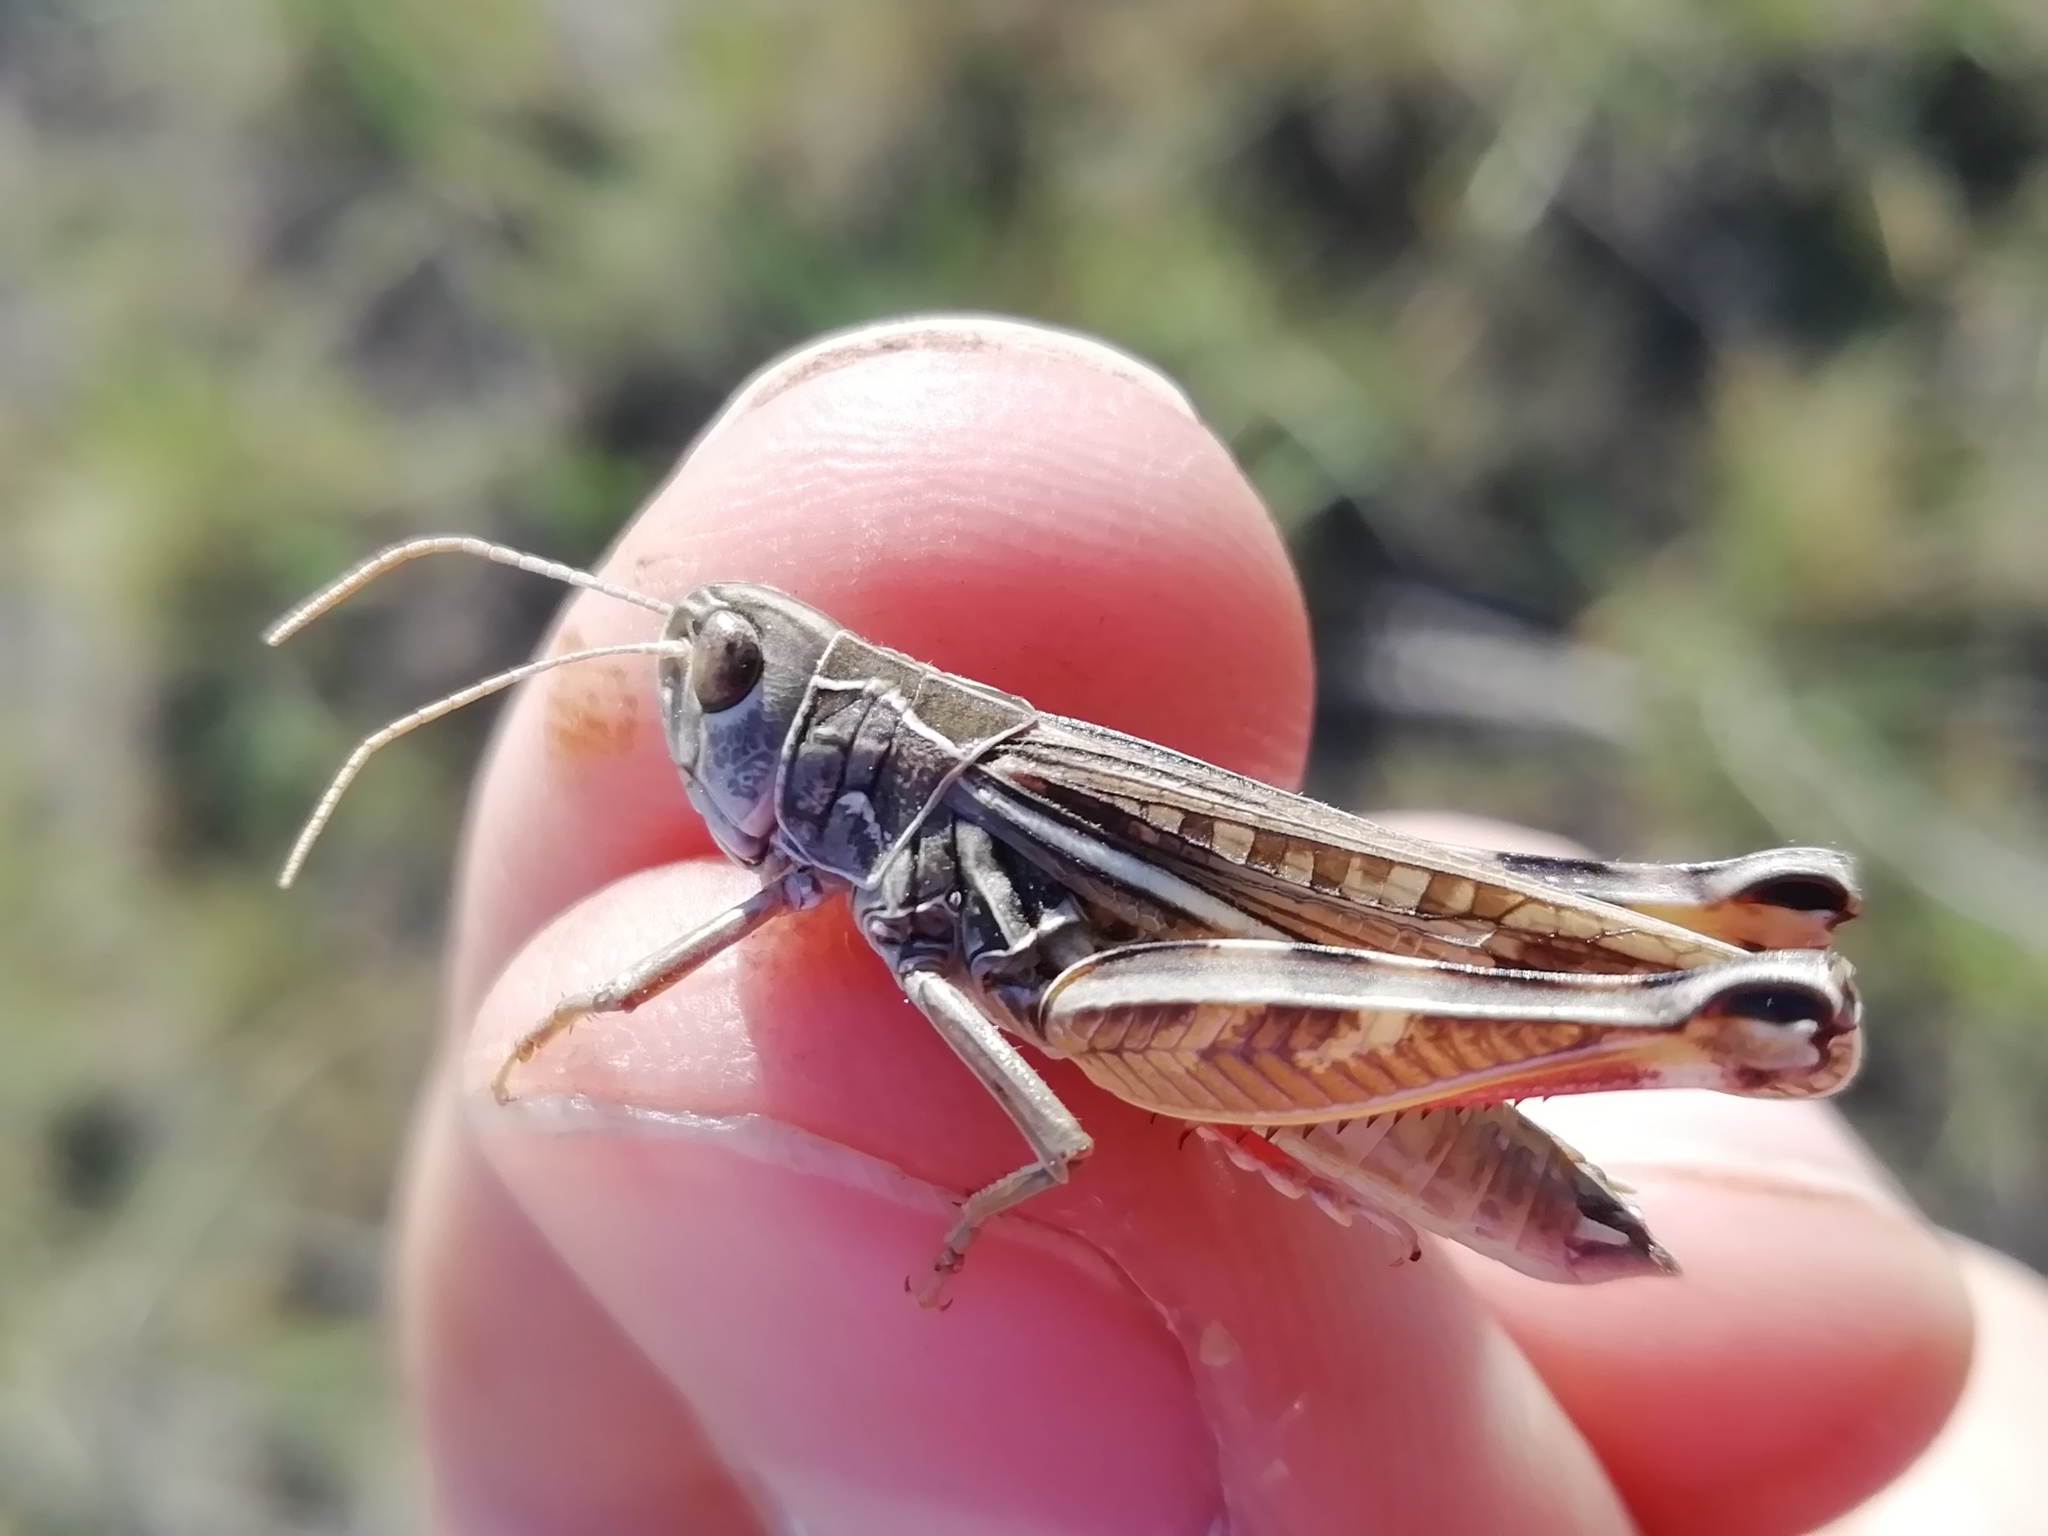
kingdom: Animalia
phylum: Arthropoda
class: Insecta
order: Orthoptera
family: Acrididae
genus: Arcyptera
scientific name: Arcyptera microptera
